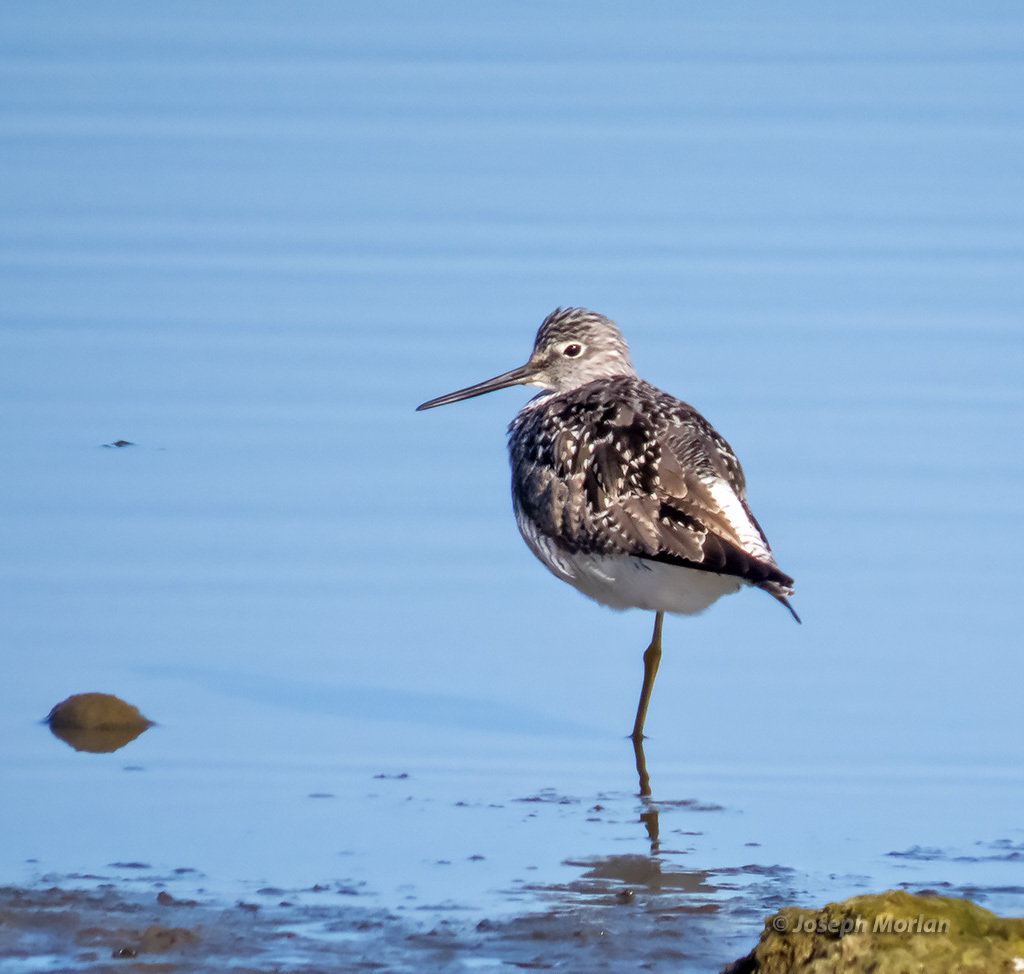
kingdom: Animalia
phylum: Chordata
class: Aves
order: Charadriiformes
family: Scolopacidae
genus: Tringa
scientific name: Tringa melanoleuca
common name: Greater yellowlegs
